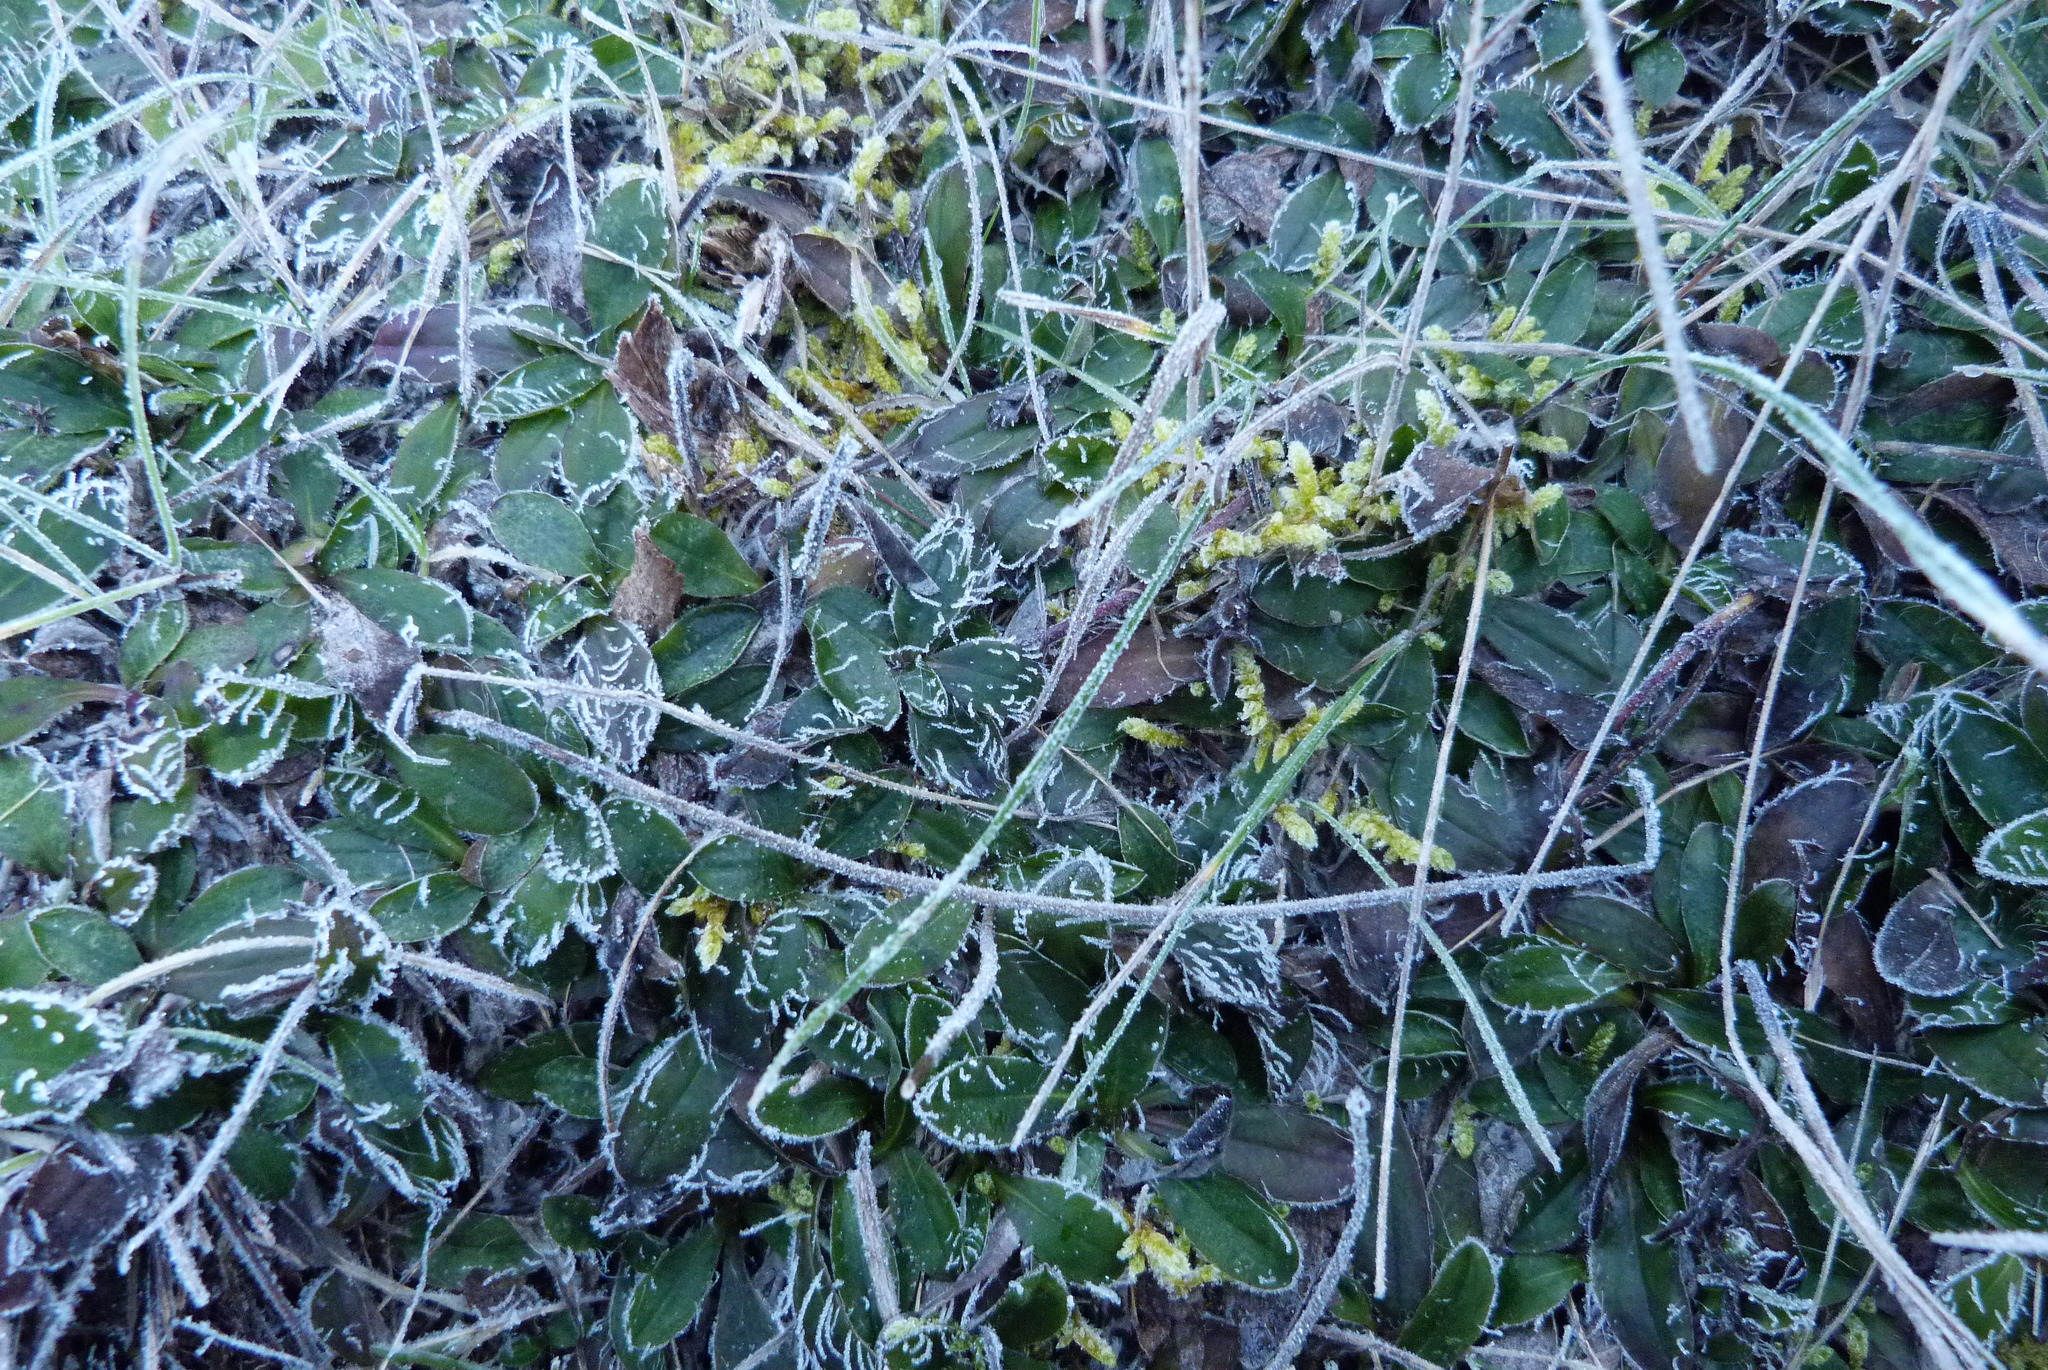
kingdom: Plantae
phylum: Tracheophyta
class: Magnoliopsida
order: Asterales
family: Asteraceae
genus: Pilosella
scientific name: Pilosella officinarum
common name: Mouse-ear hawkweed
